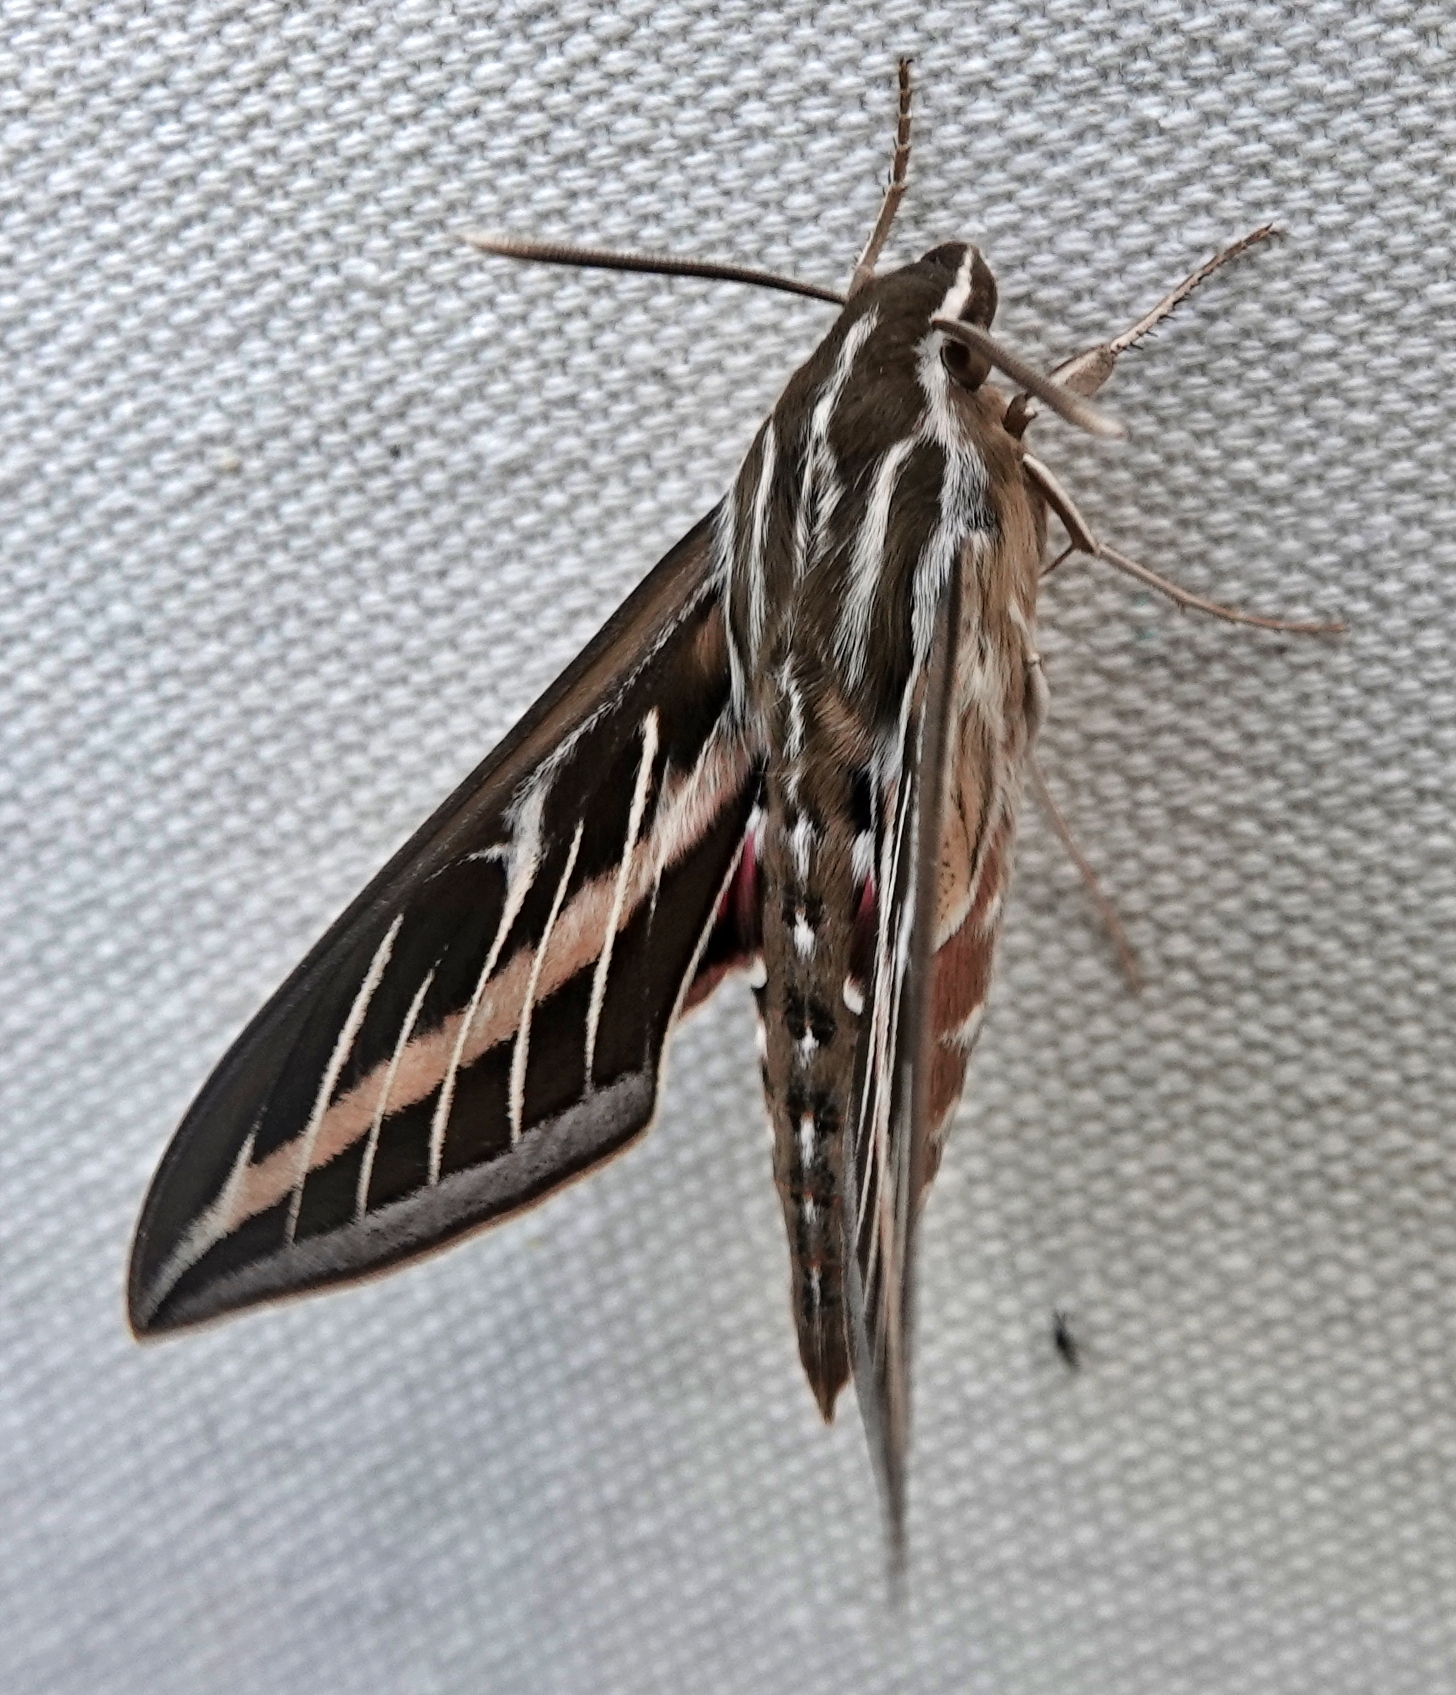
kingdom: Animalia
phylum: Arthropoda
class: Insecta
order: Lepidoptera
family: Sphingidae
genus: Hyles
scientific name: Hyles lineata
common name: White-lined sphinx
